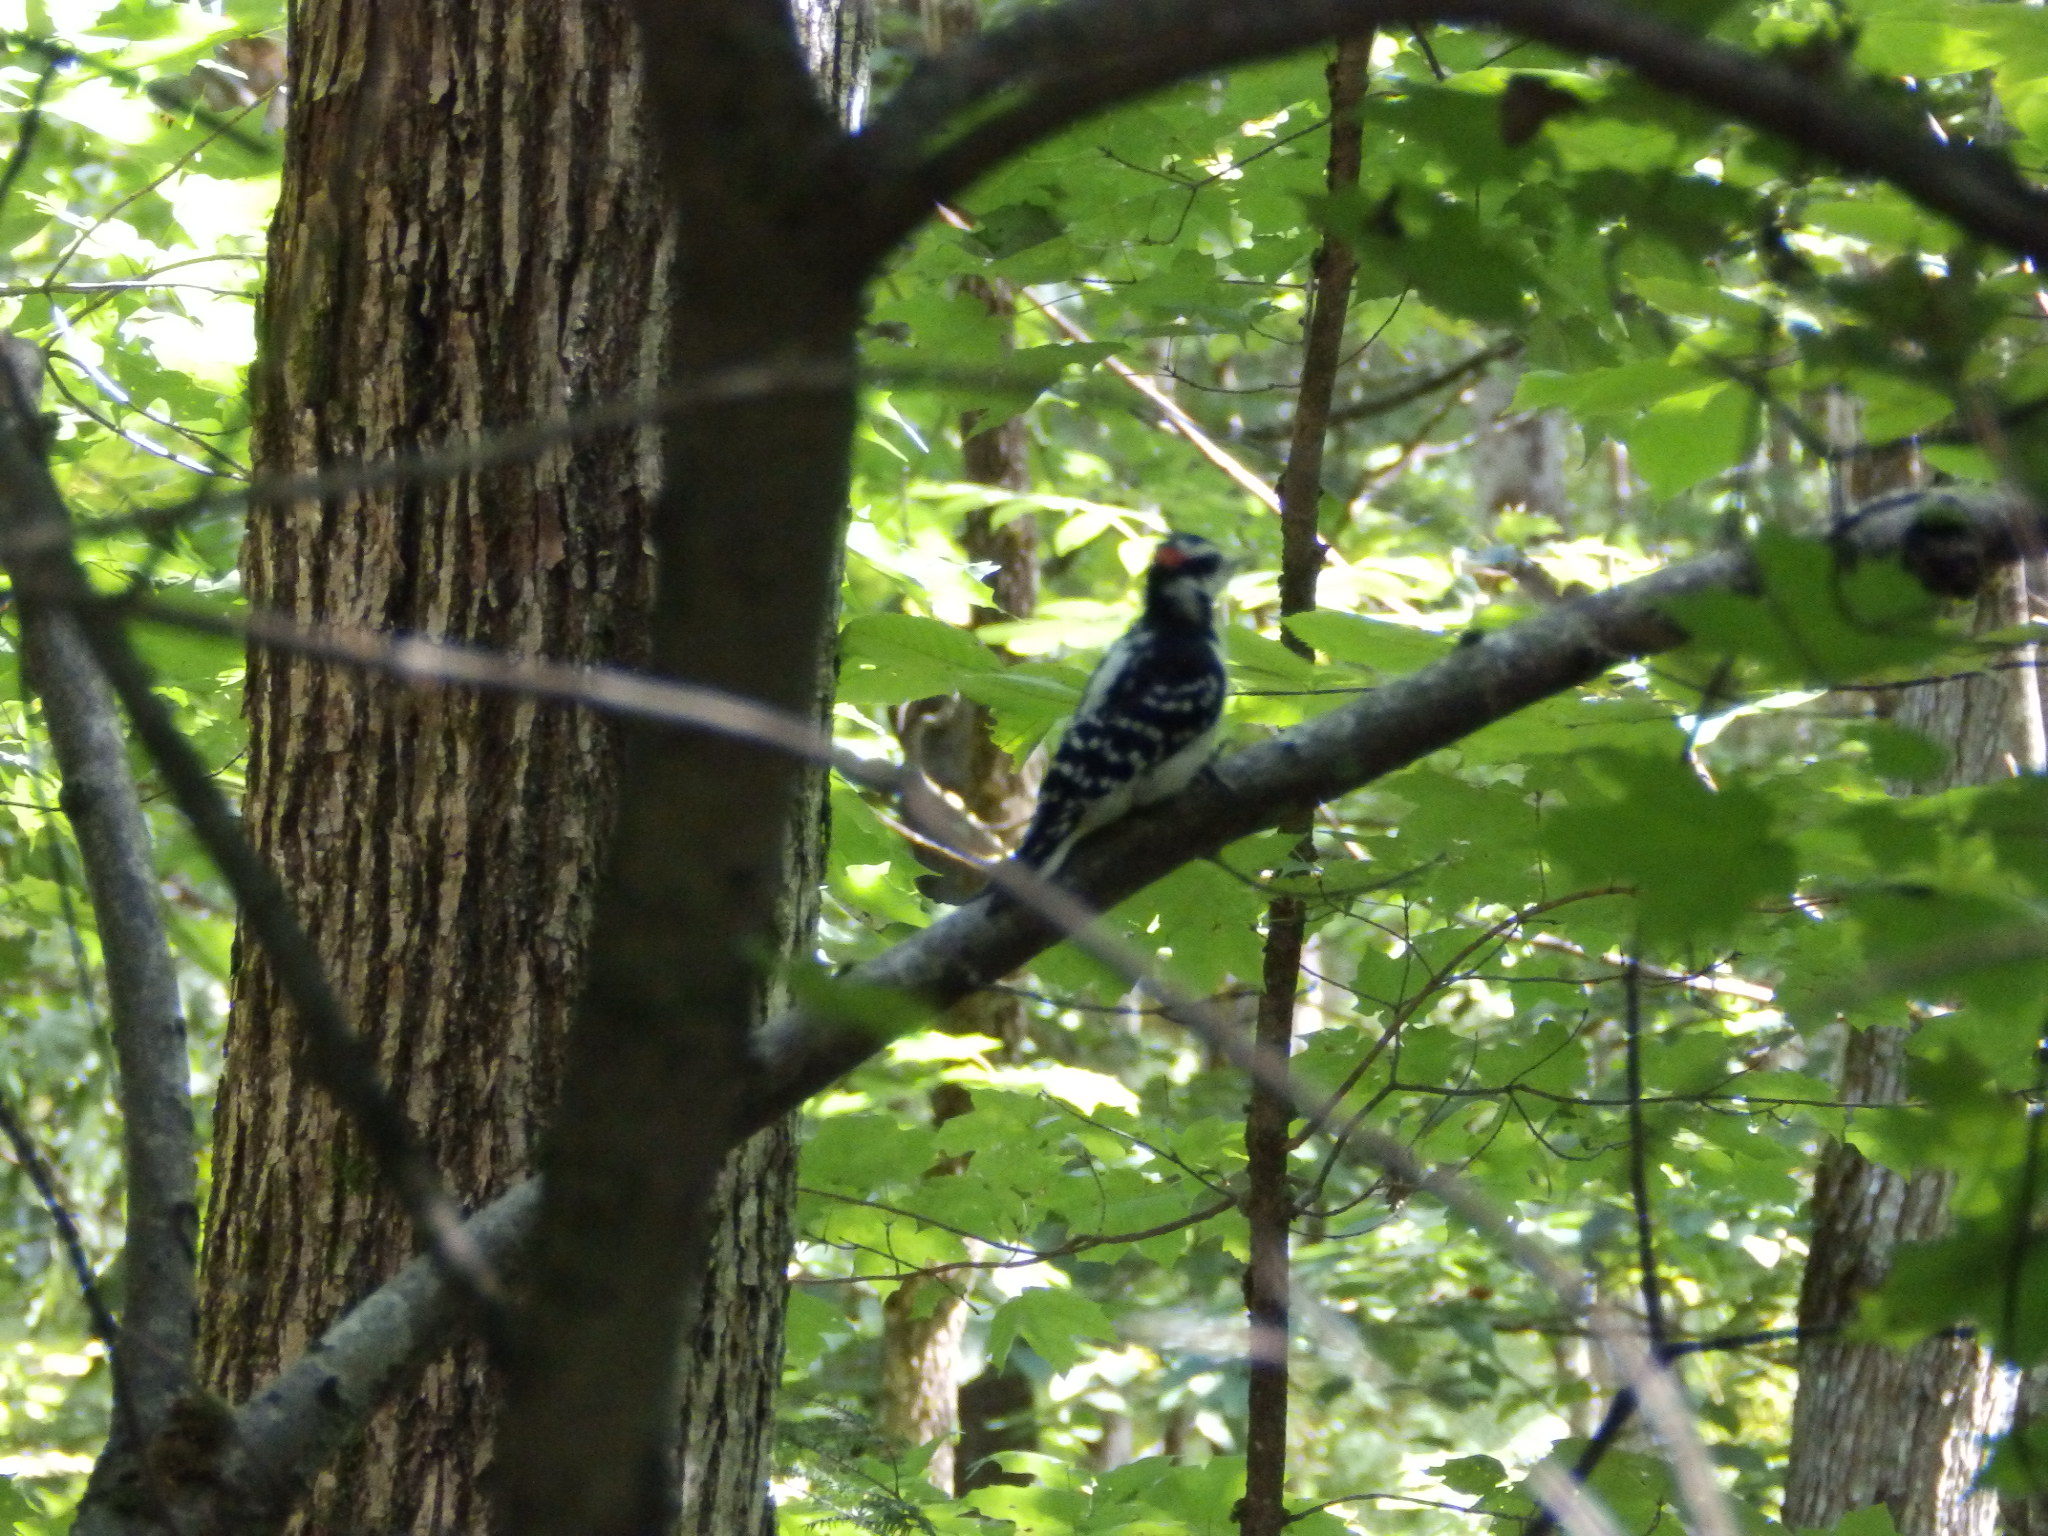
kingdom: Animalia
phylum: Chordata
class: Aves
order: Piciformes
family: Picidae
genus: Leuconotopicus
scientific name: Leuconotopicus villosus
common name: Hairy woodpecker
